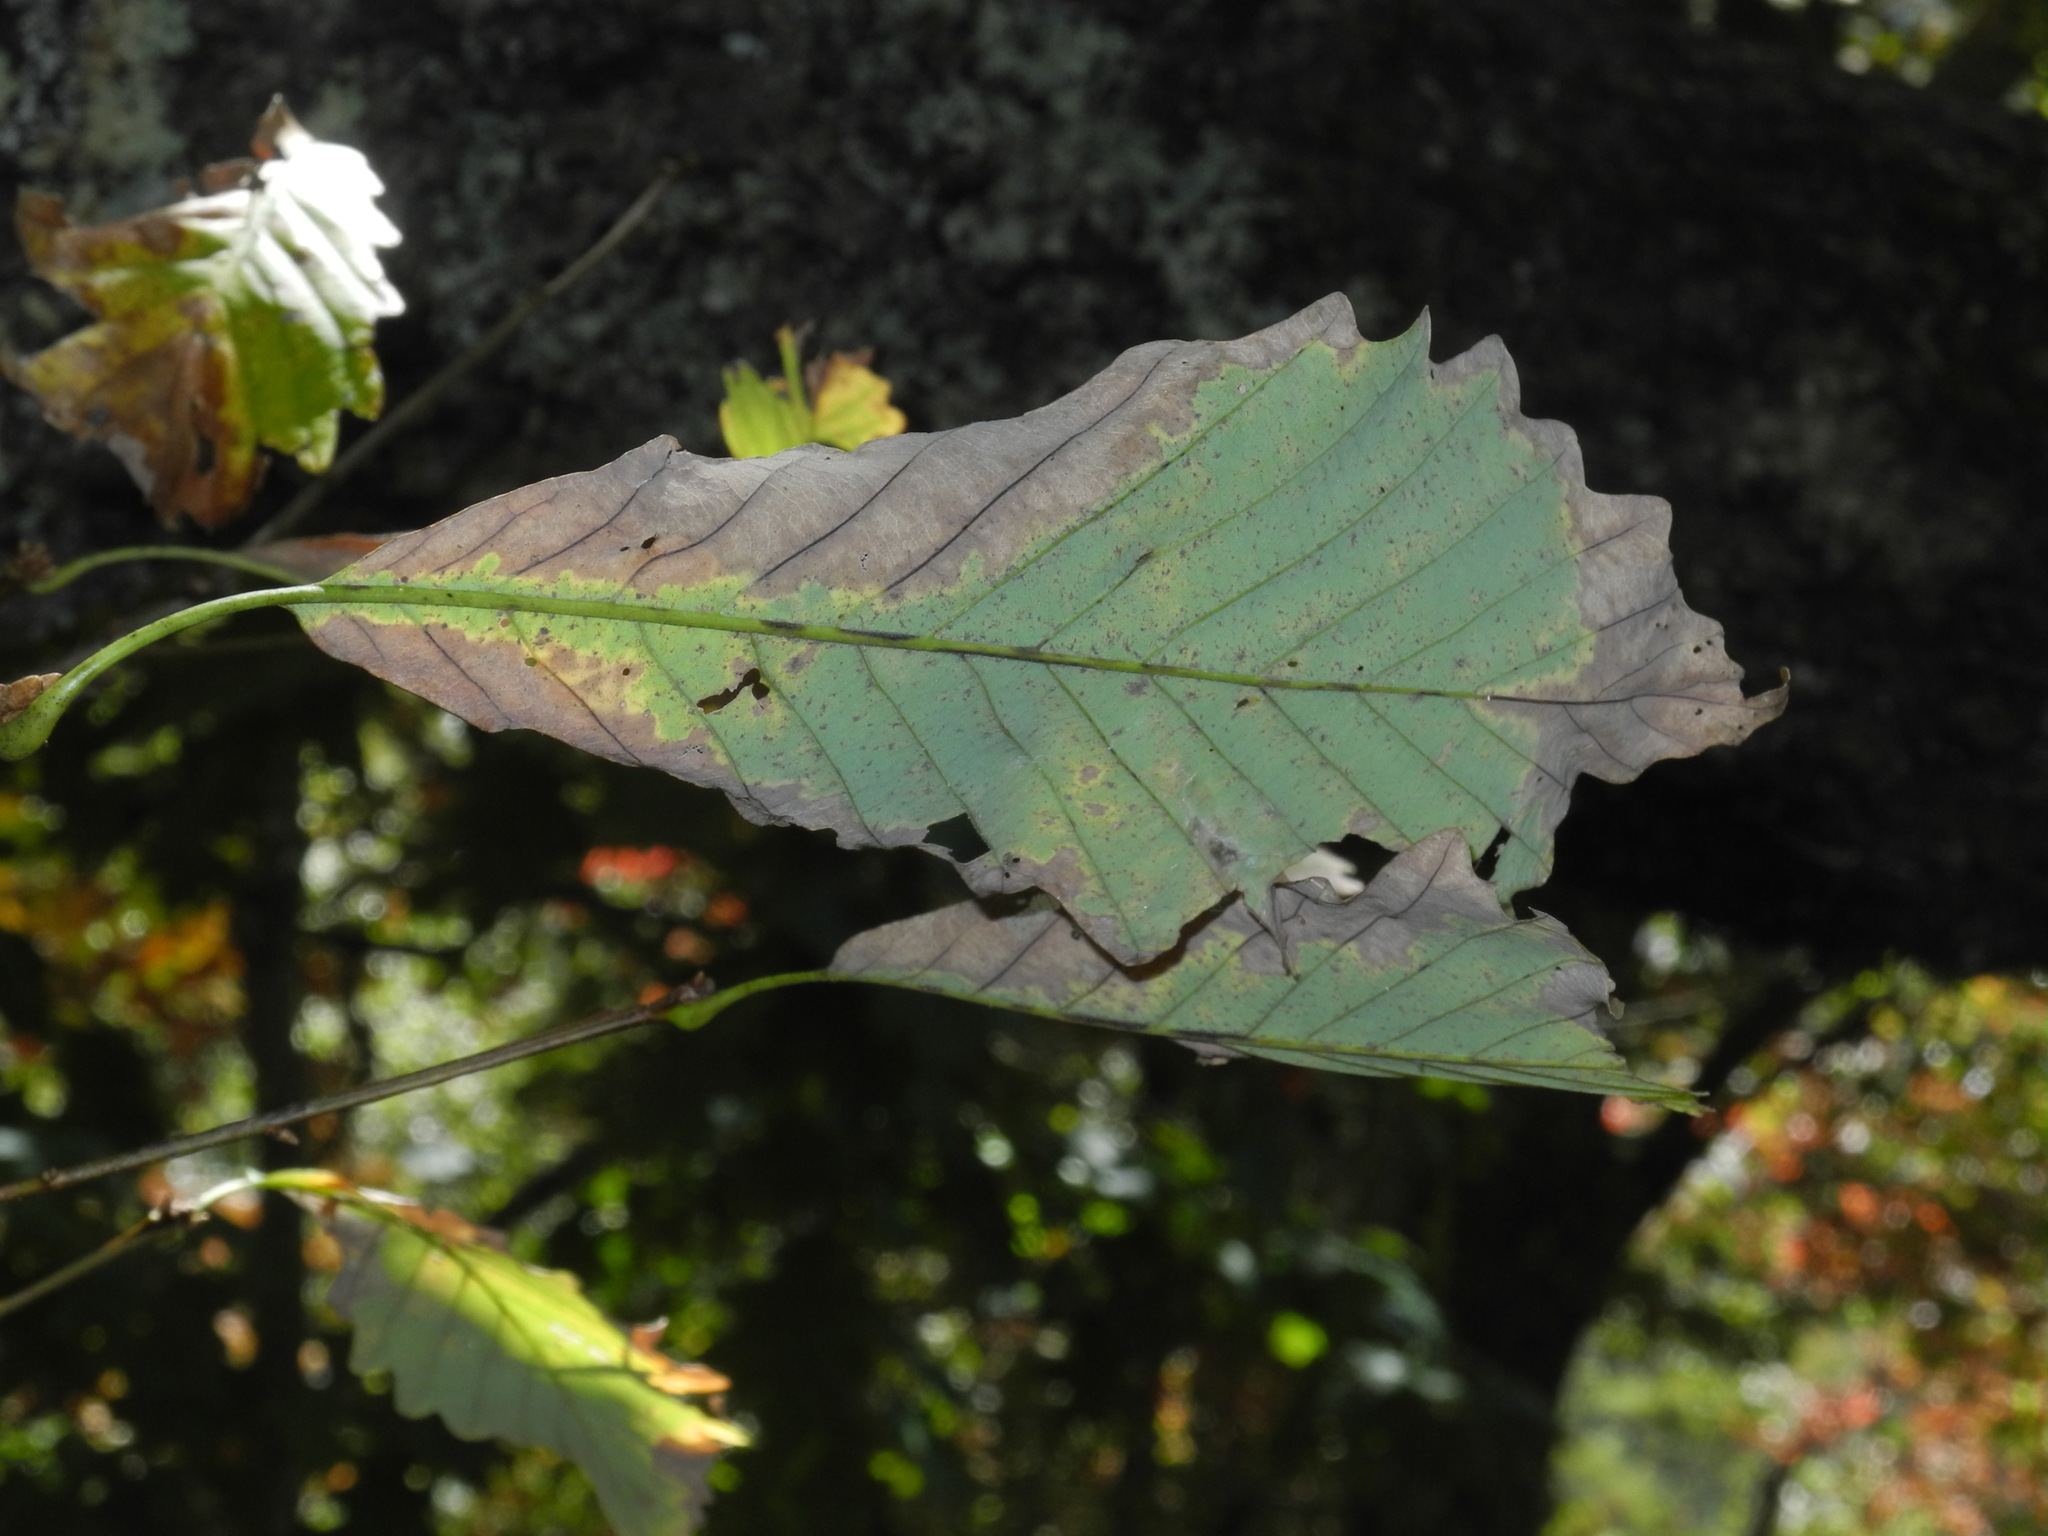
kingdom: Plantae
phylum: Tracheophyta
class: Magnoliopsida
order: Fagales
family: Fagaceae
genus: Quercus
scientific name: Quercus montana
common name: Chestnut oak
